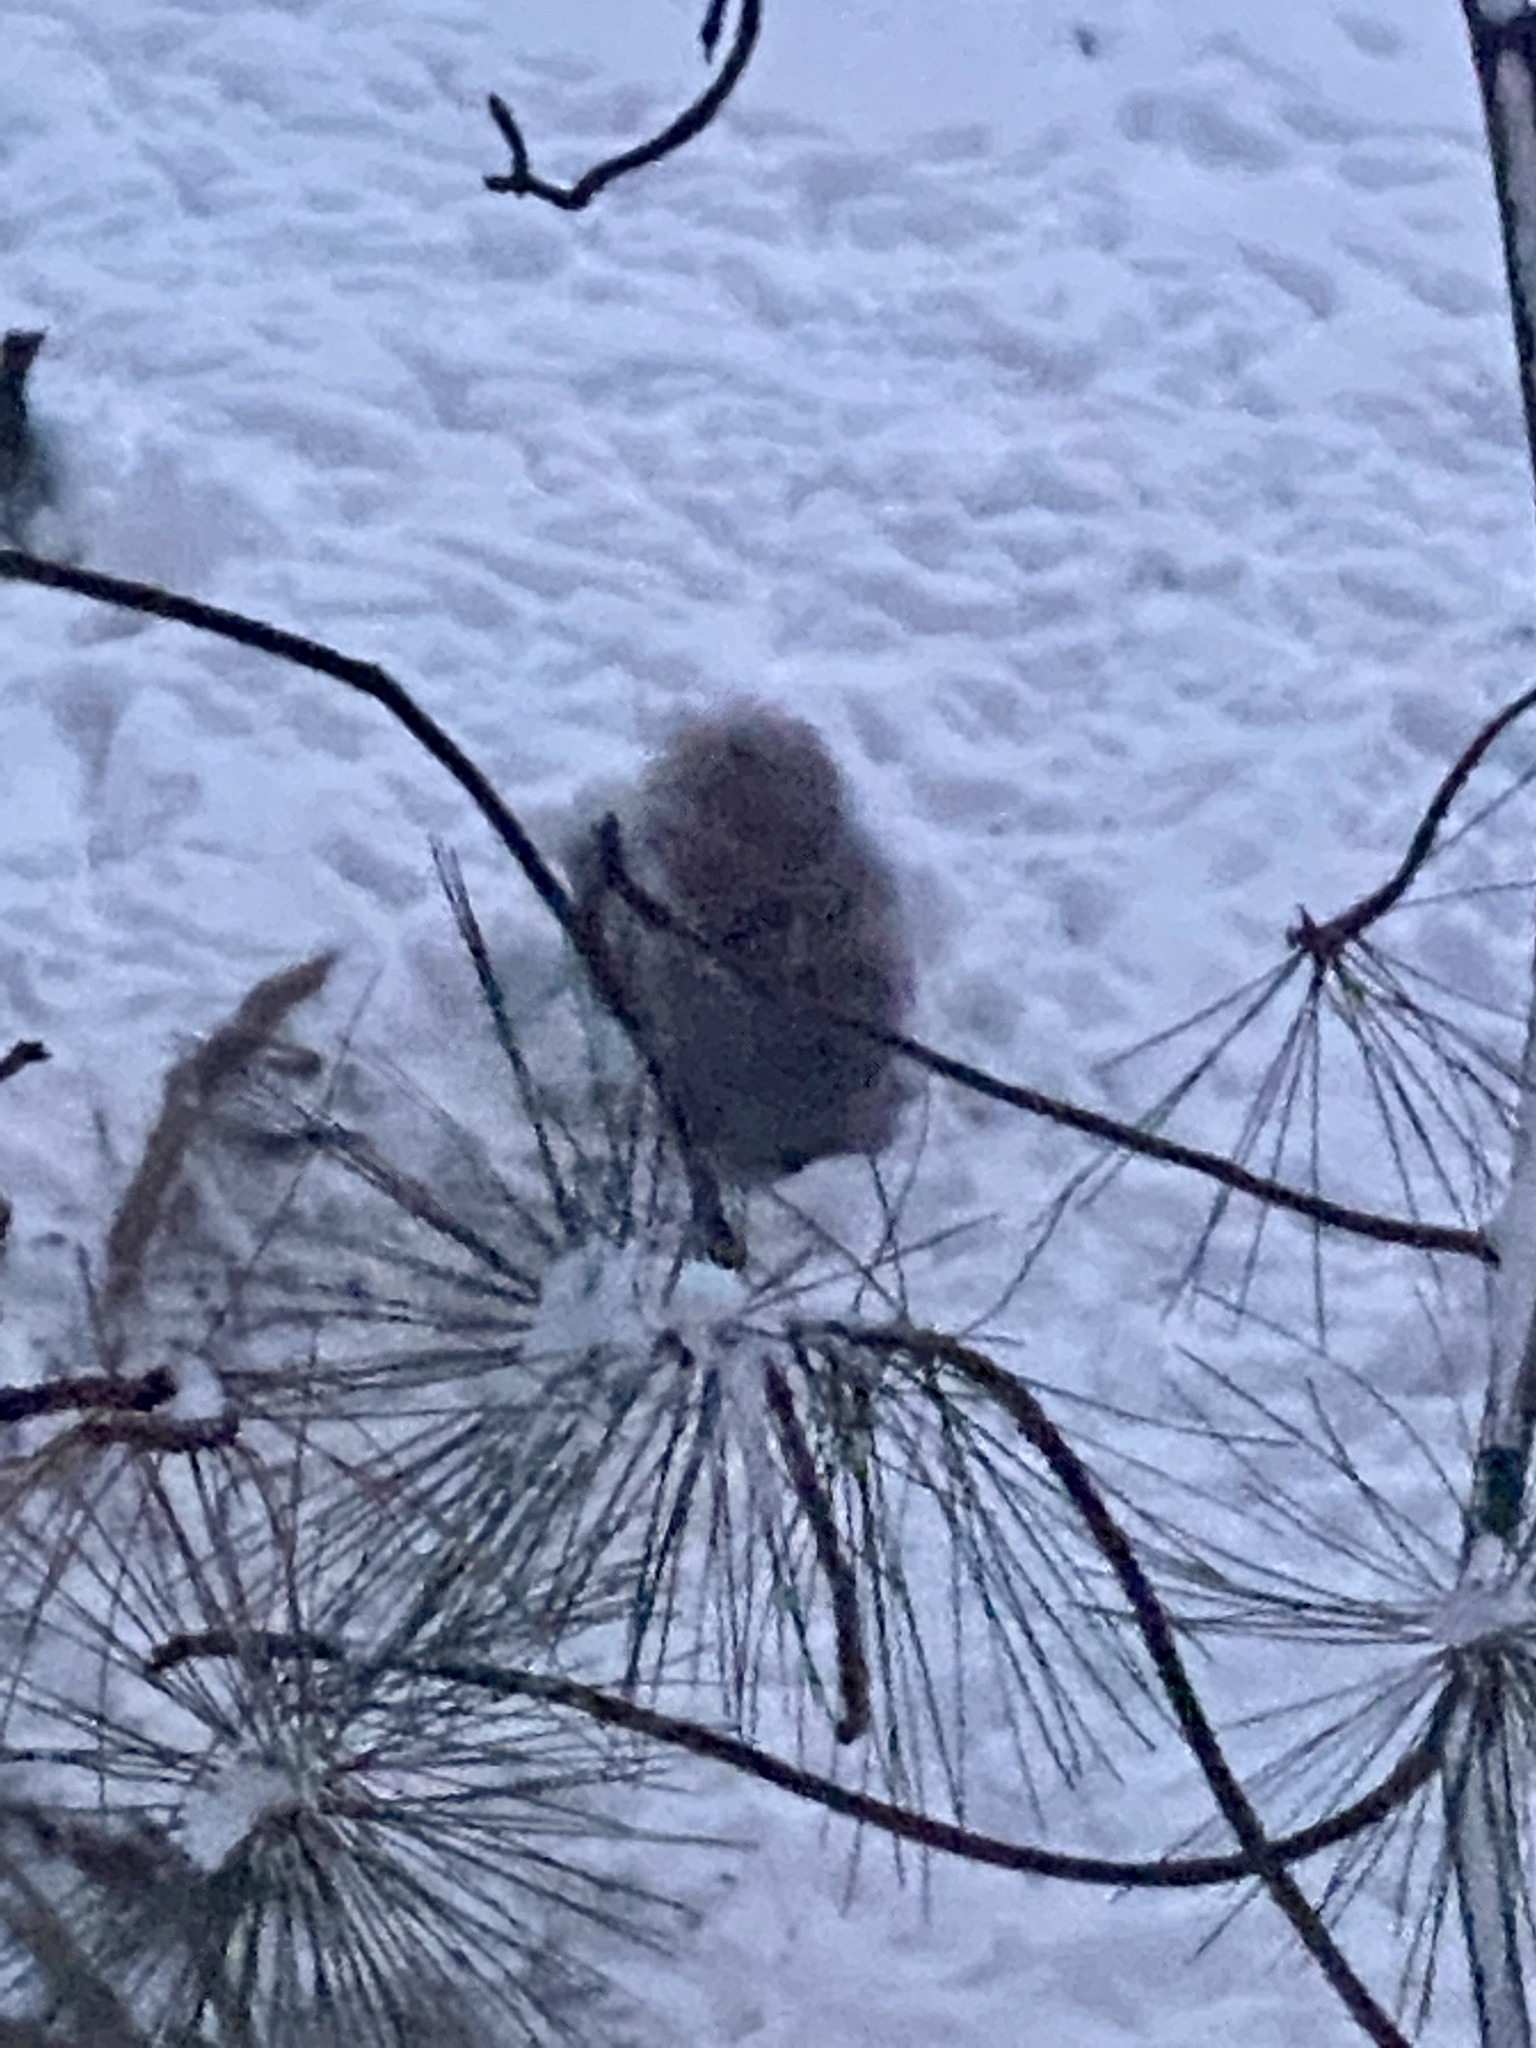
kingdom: Animalia
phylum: Chordata
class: Mammalia
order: Rodentia
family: Sciuridae
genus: Sciurus
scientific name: Sciurus carolinensis
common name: Eastern gray squirrel
